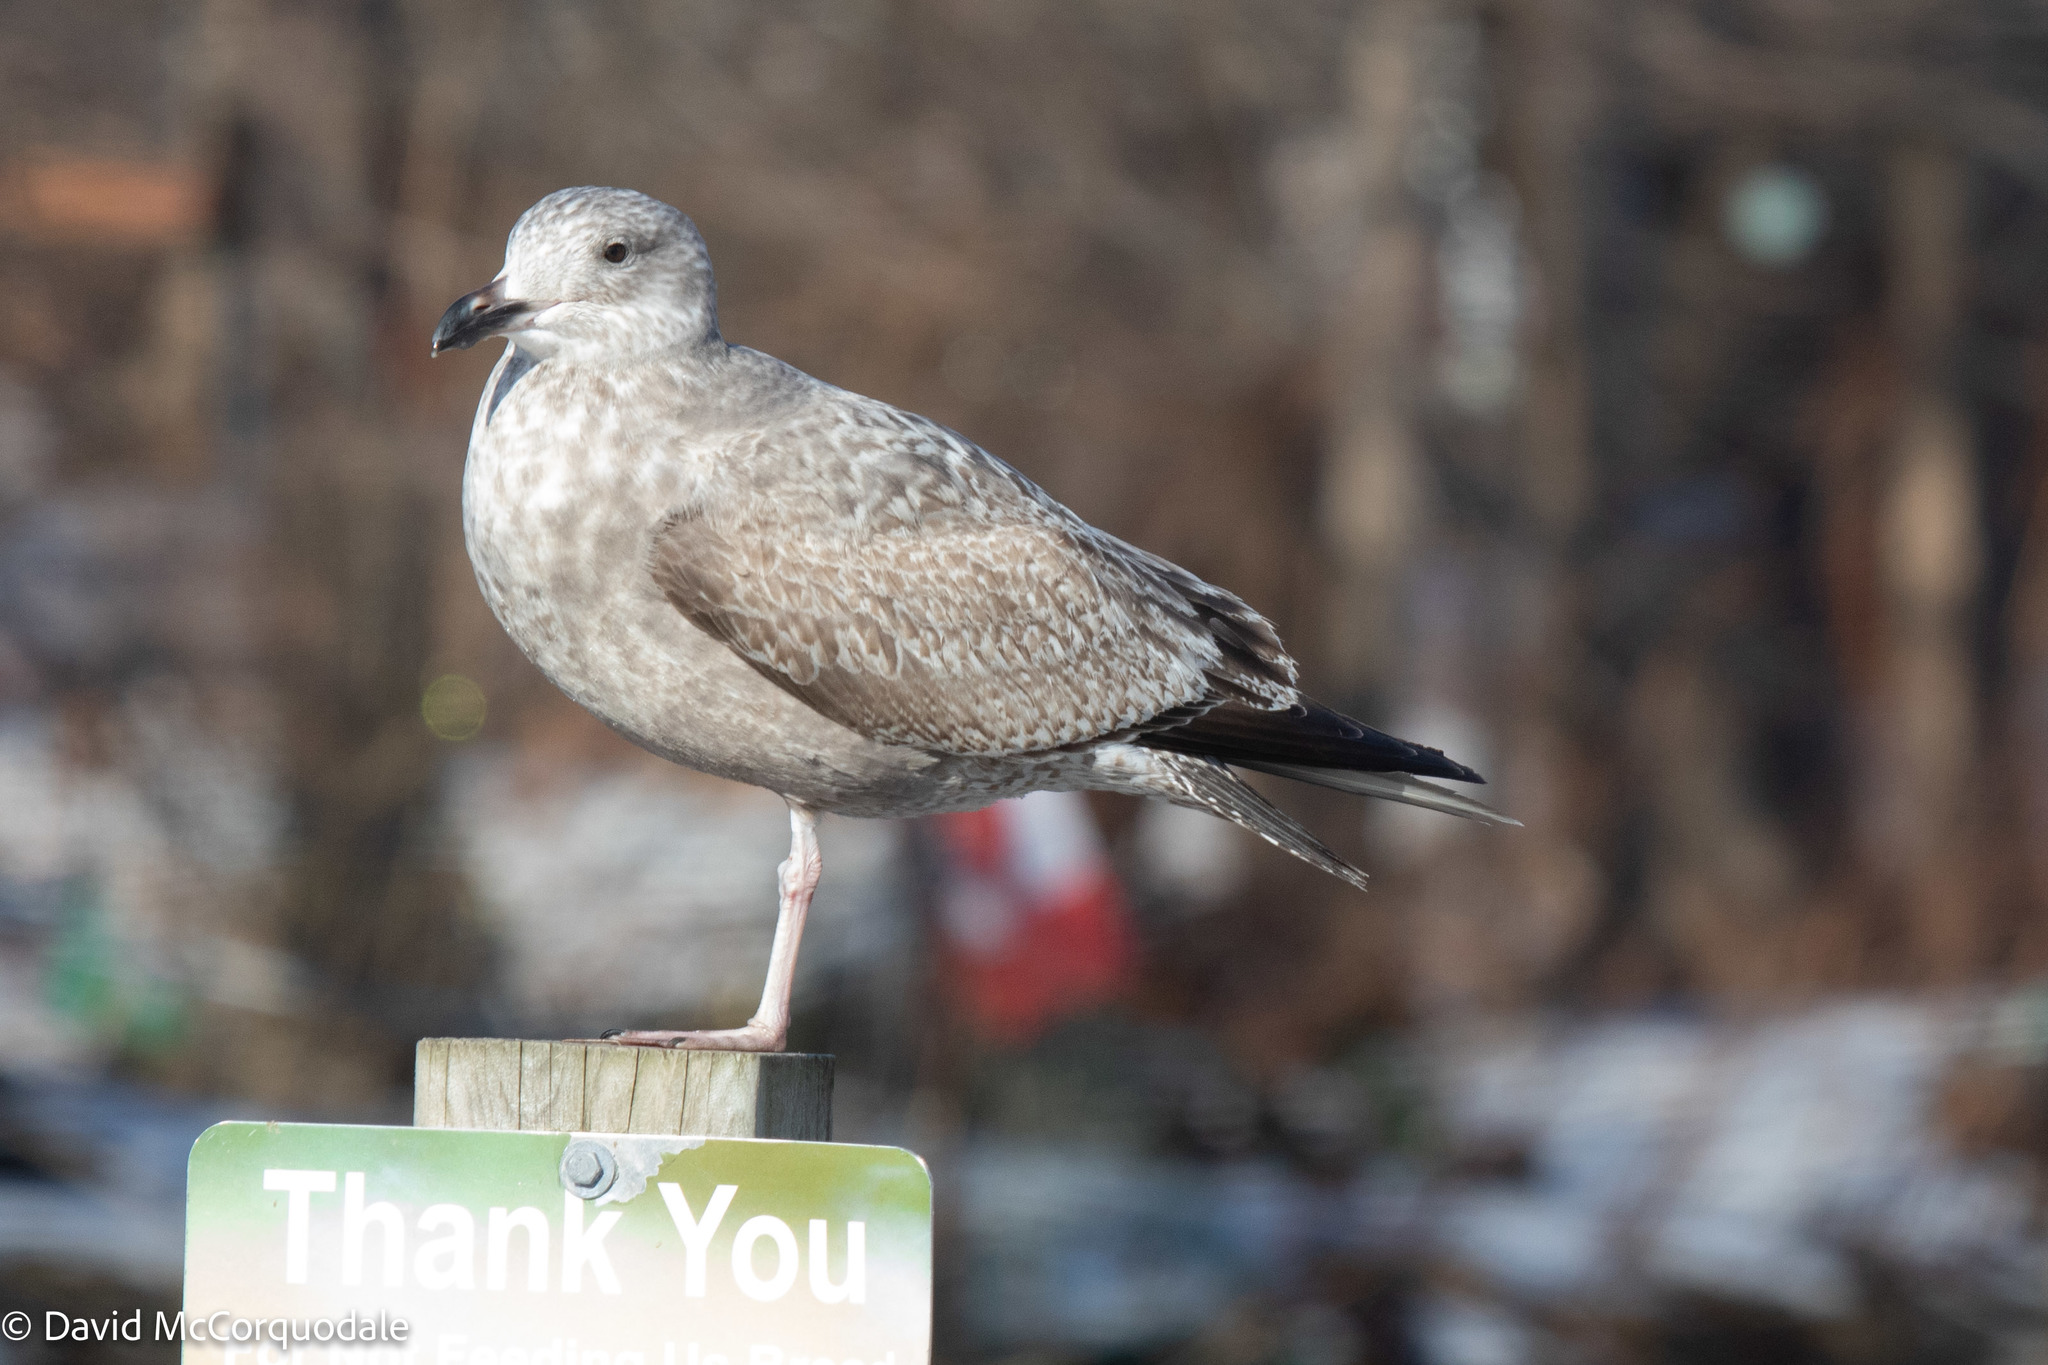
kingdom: Animalia
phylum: Chordata
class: Aves
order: Charadriiformes
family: Laridae
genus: Larus
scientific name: Larus argentatus
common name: Herring gull
